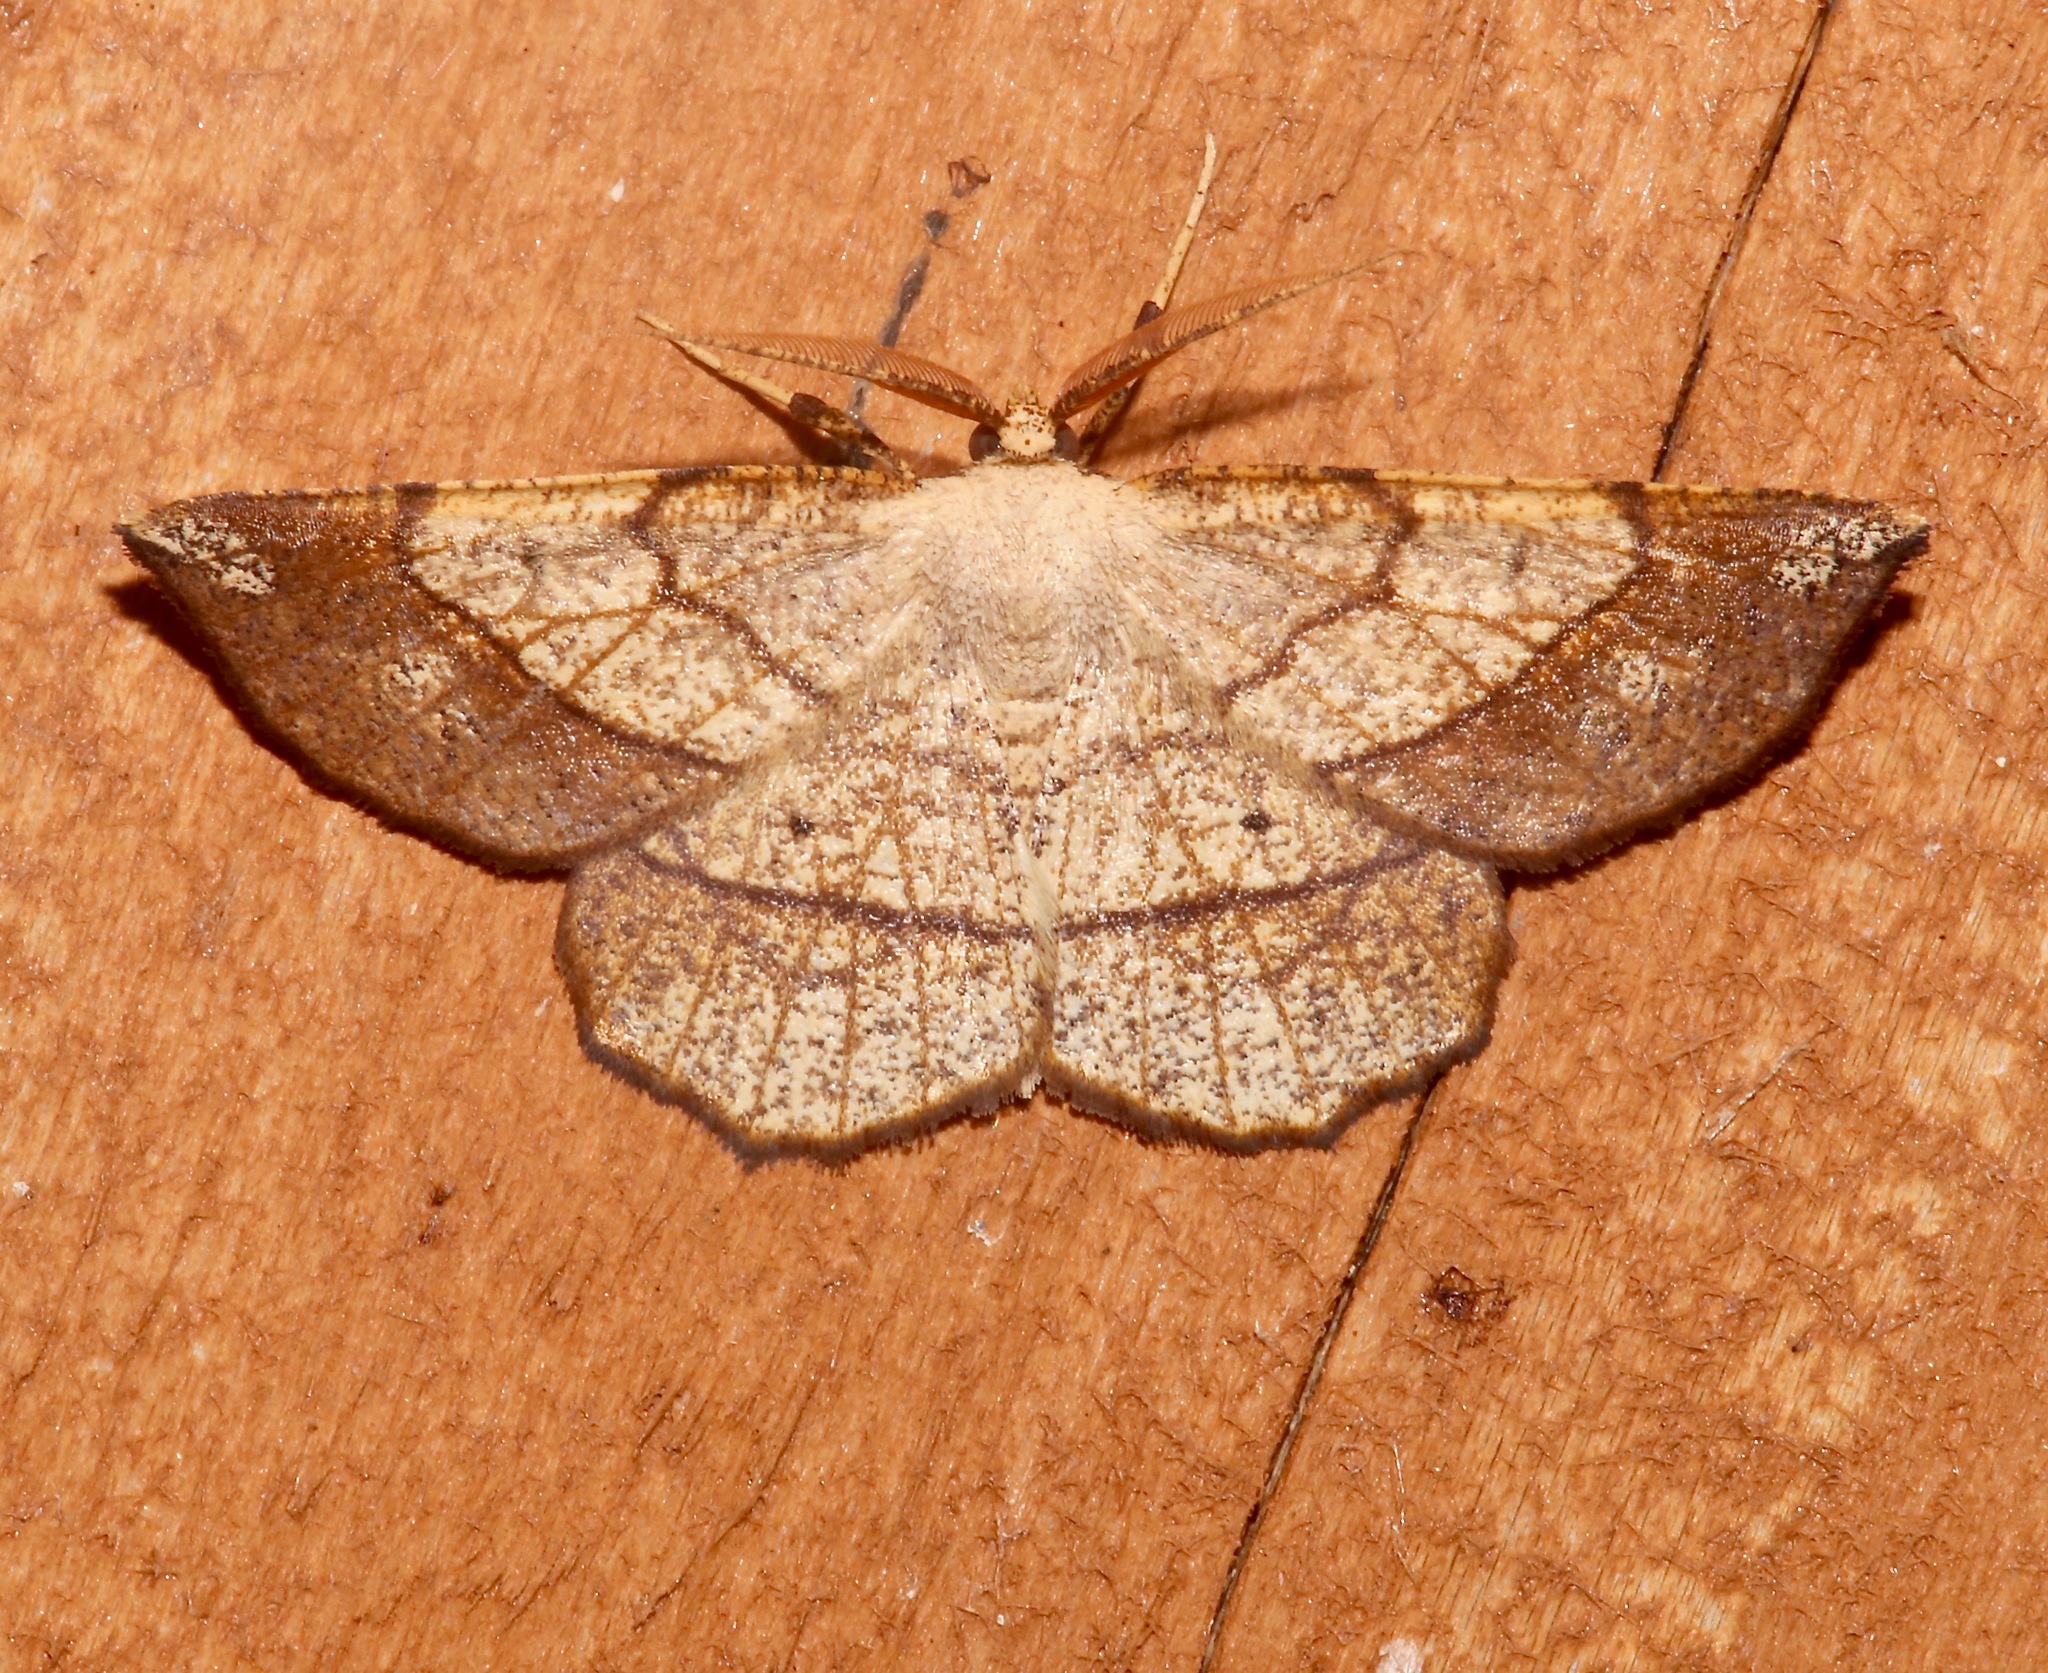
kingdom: Animalia
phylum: Arthropoda
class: Insecta
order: Lepidoptera
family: Geometridae
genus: Euchlaena
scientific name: Euchlaena madusaria
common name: Scrub euchlaena moth
